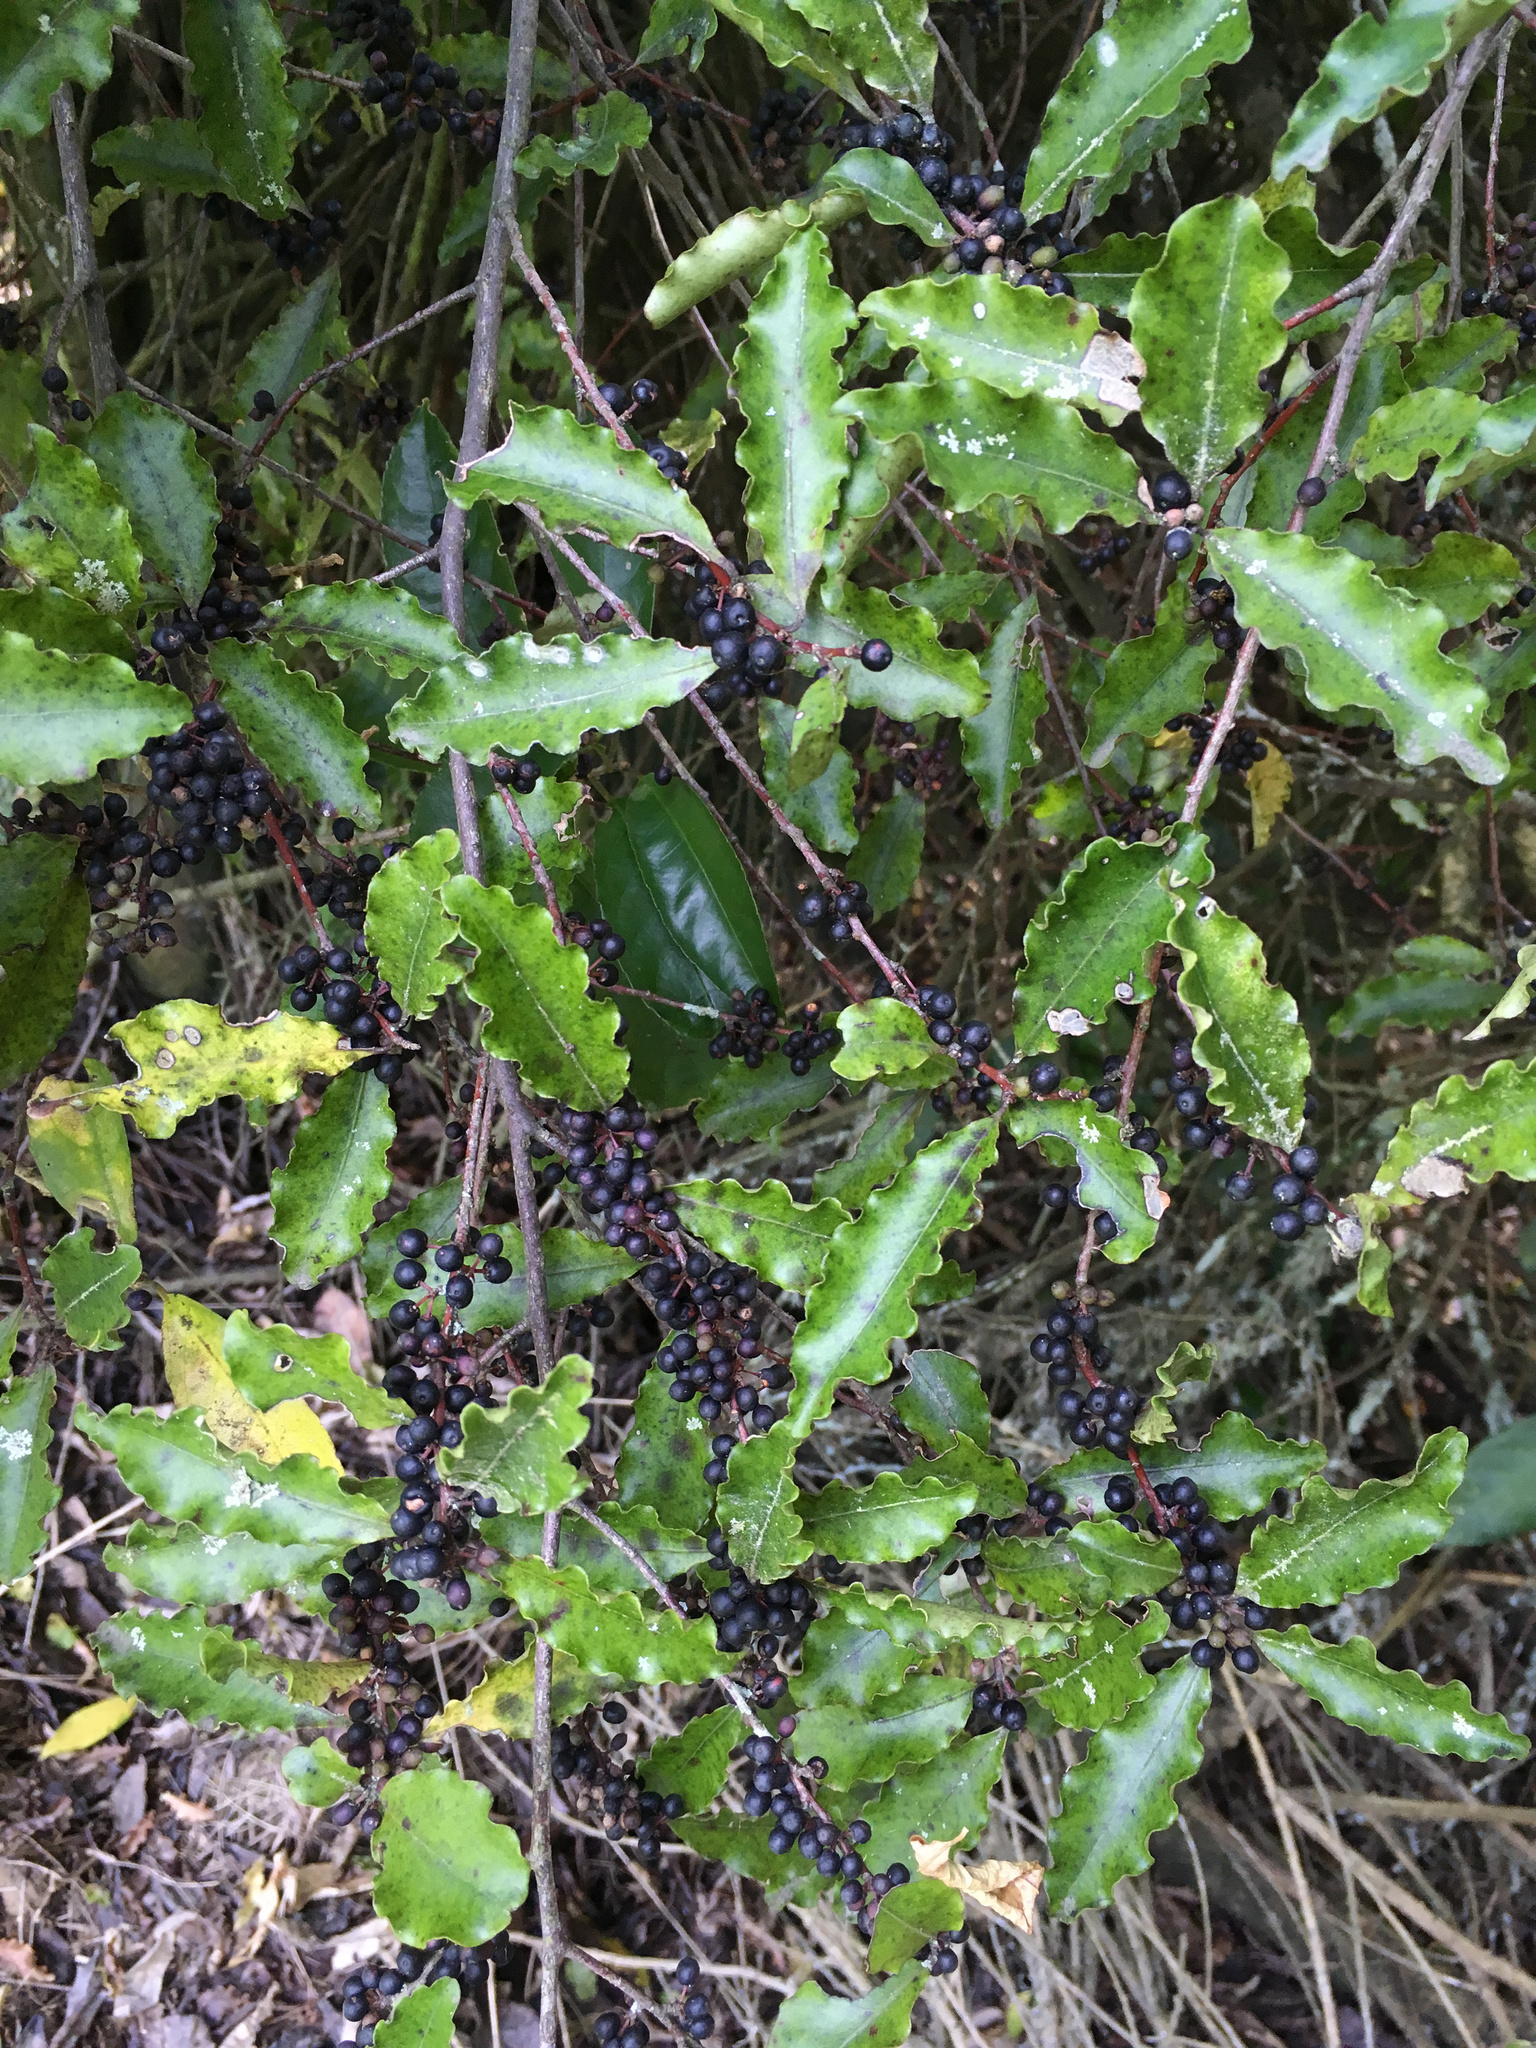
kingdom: Plantae
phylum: Tracheophyta
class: Magnoliopsida
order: Ericales
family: Primulaceae
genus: Myrsine
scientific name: Myrsine australis
